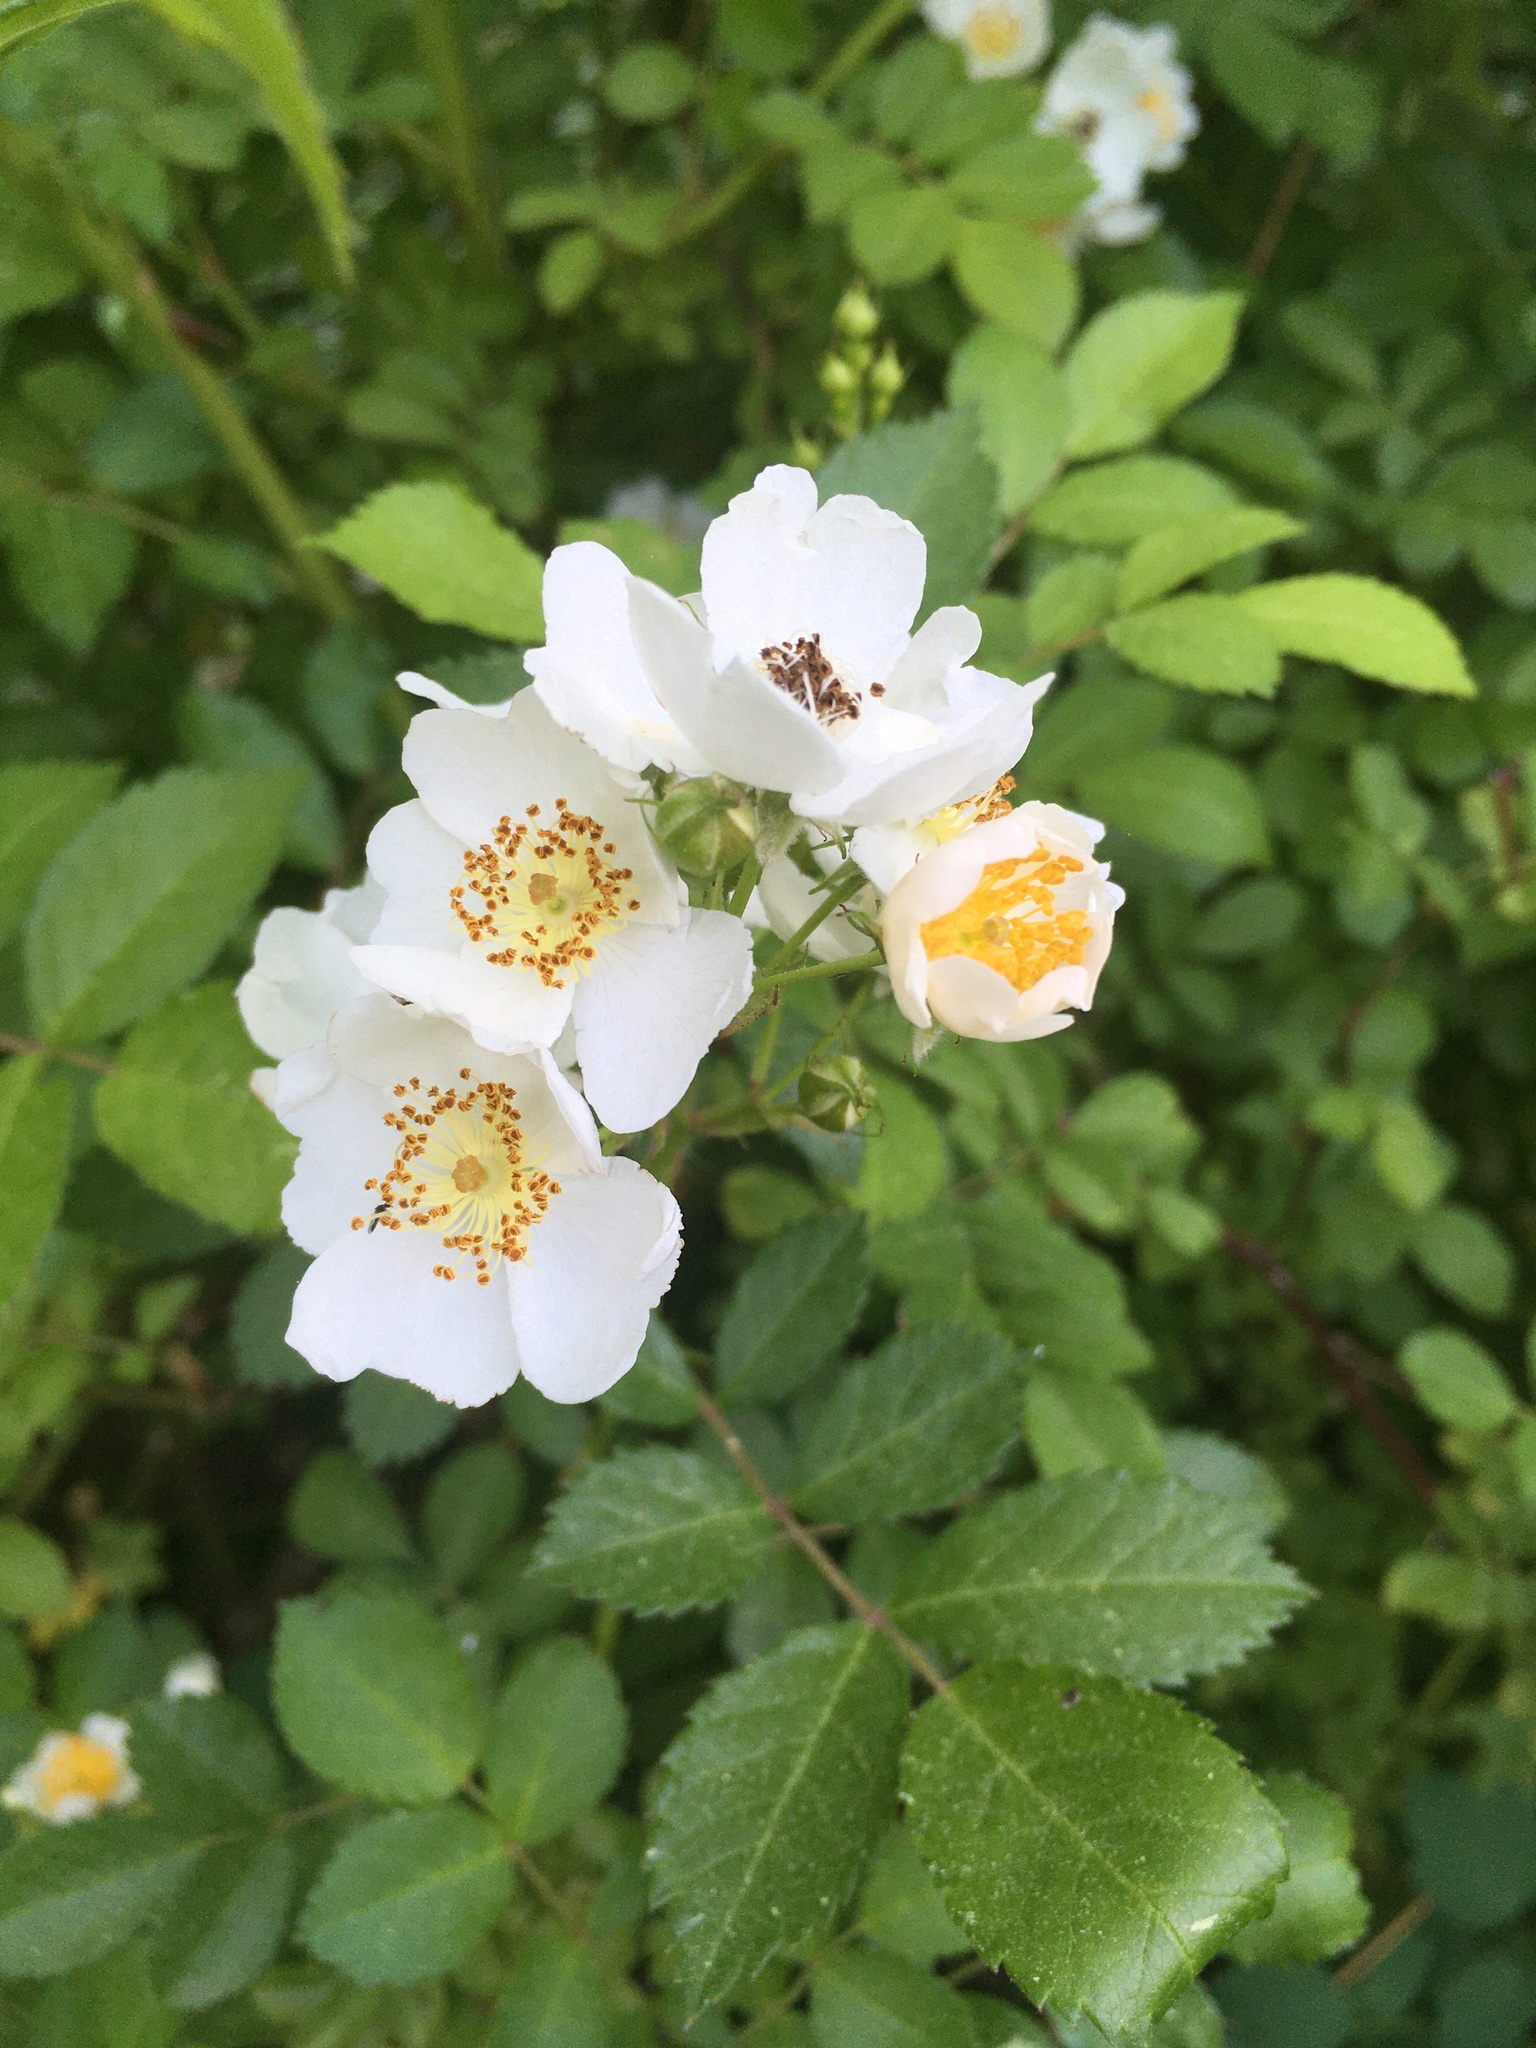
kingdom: Plantae
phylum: Tracheophyta
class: Magnoliopsida
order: Rosales
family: Rosaceae
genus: Rosa
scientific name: Rosa multiflora
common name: Multiflora rose
